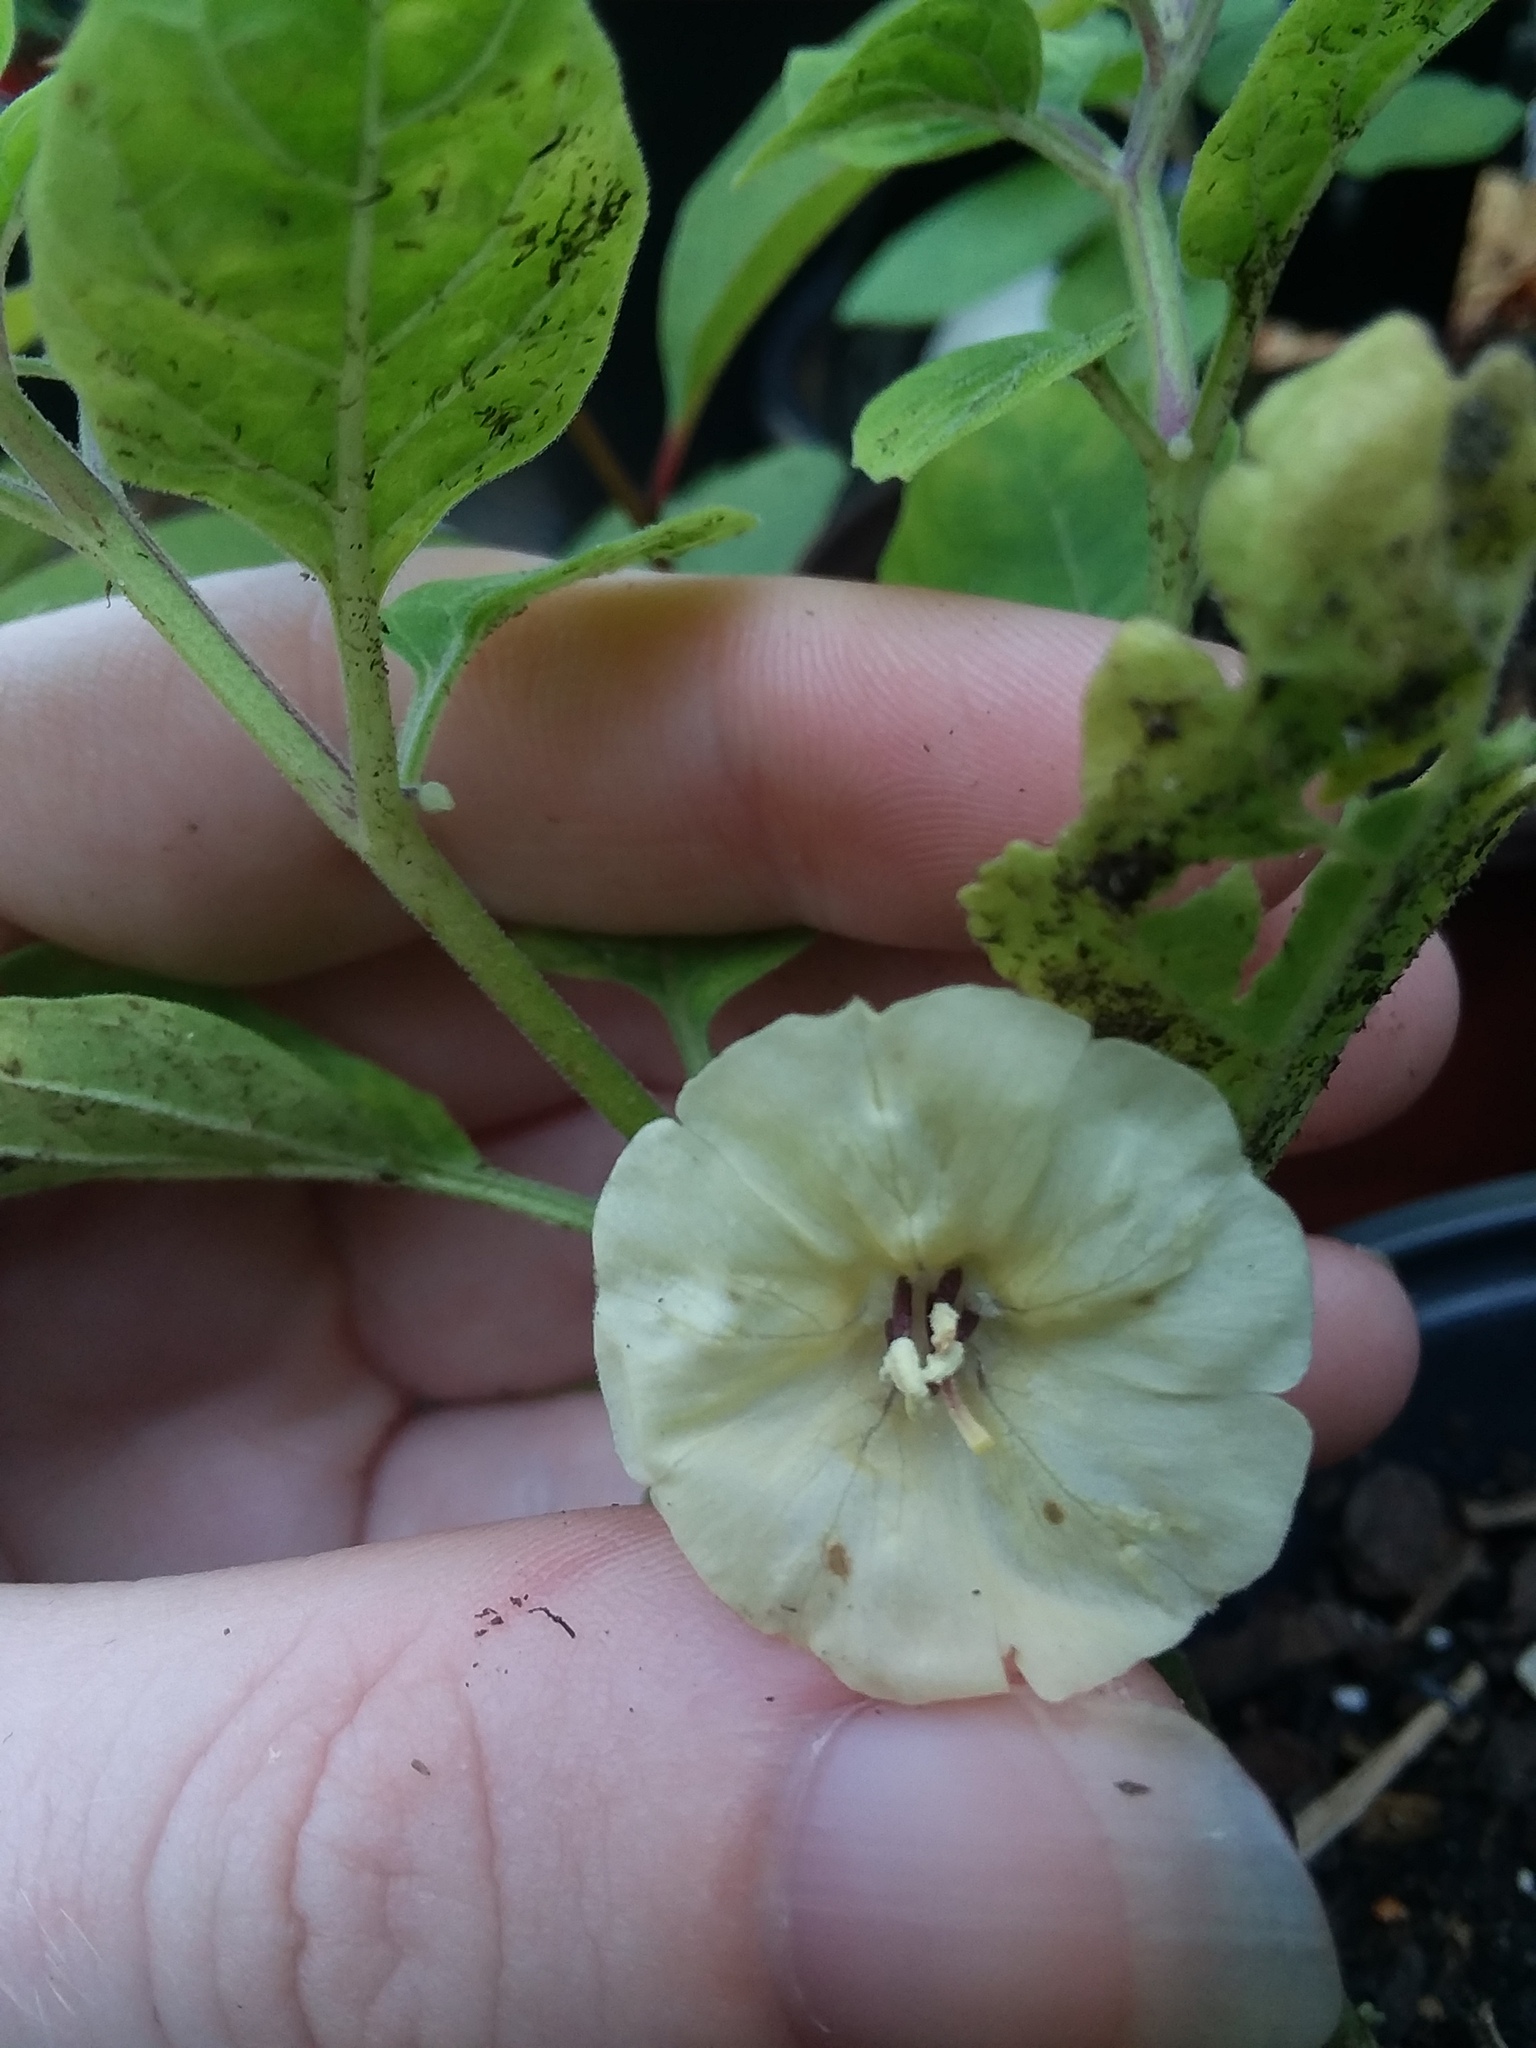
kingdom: Plantae
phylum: Tracheophyta
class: Magnoliopsida
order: Solanales
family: Solanaceae
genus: Physalis
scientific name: Physalis walteri
